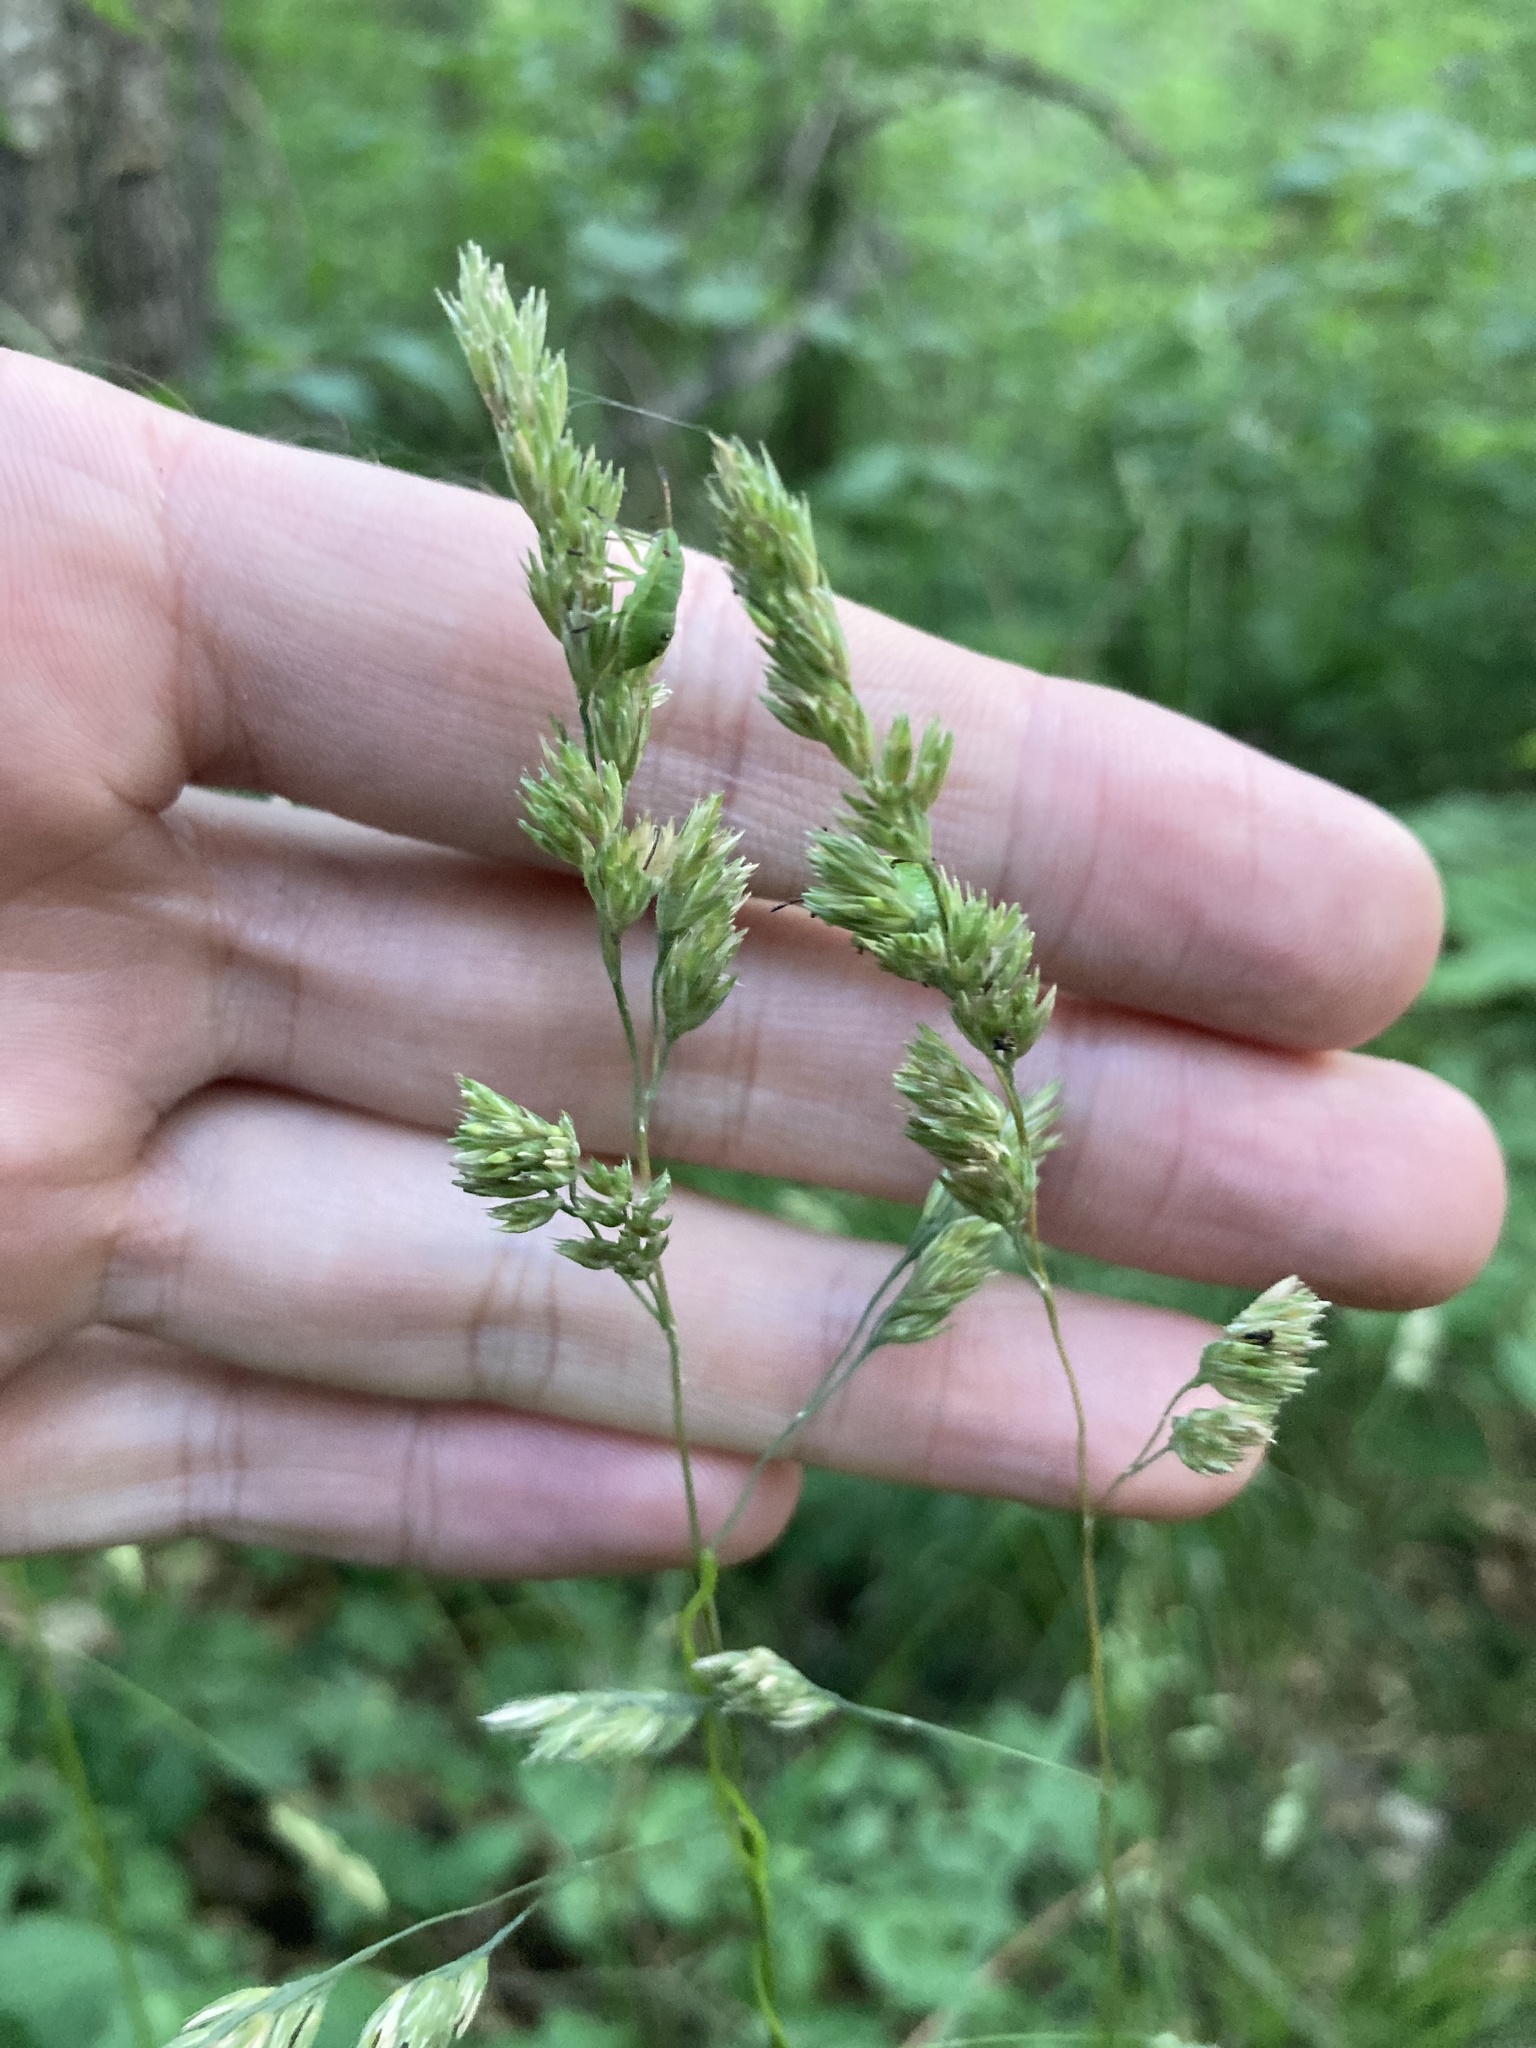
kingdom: Plantae
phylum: Tracheophyta
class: Liliopsida
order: Poales
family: Poaceae
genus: Dactylis
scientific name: Dactylis glomerata
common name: Orchardgrass
